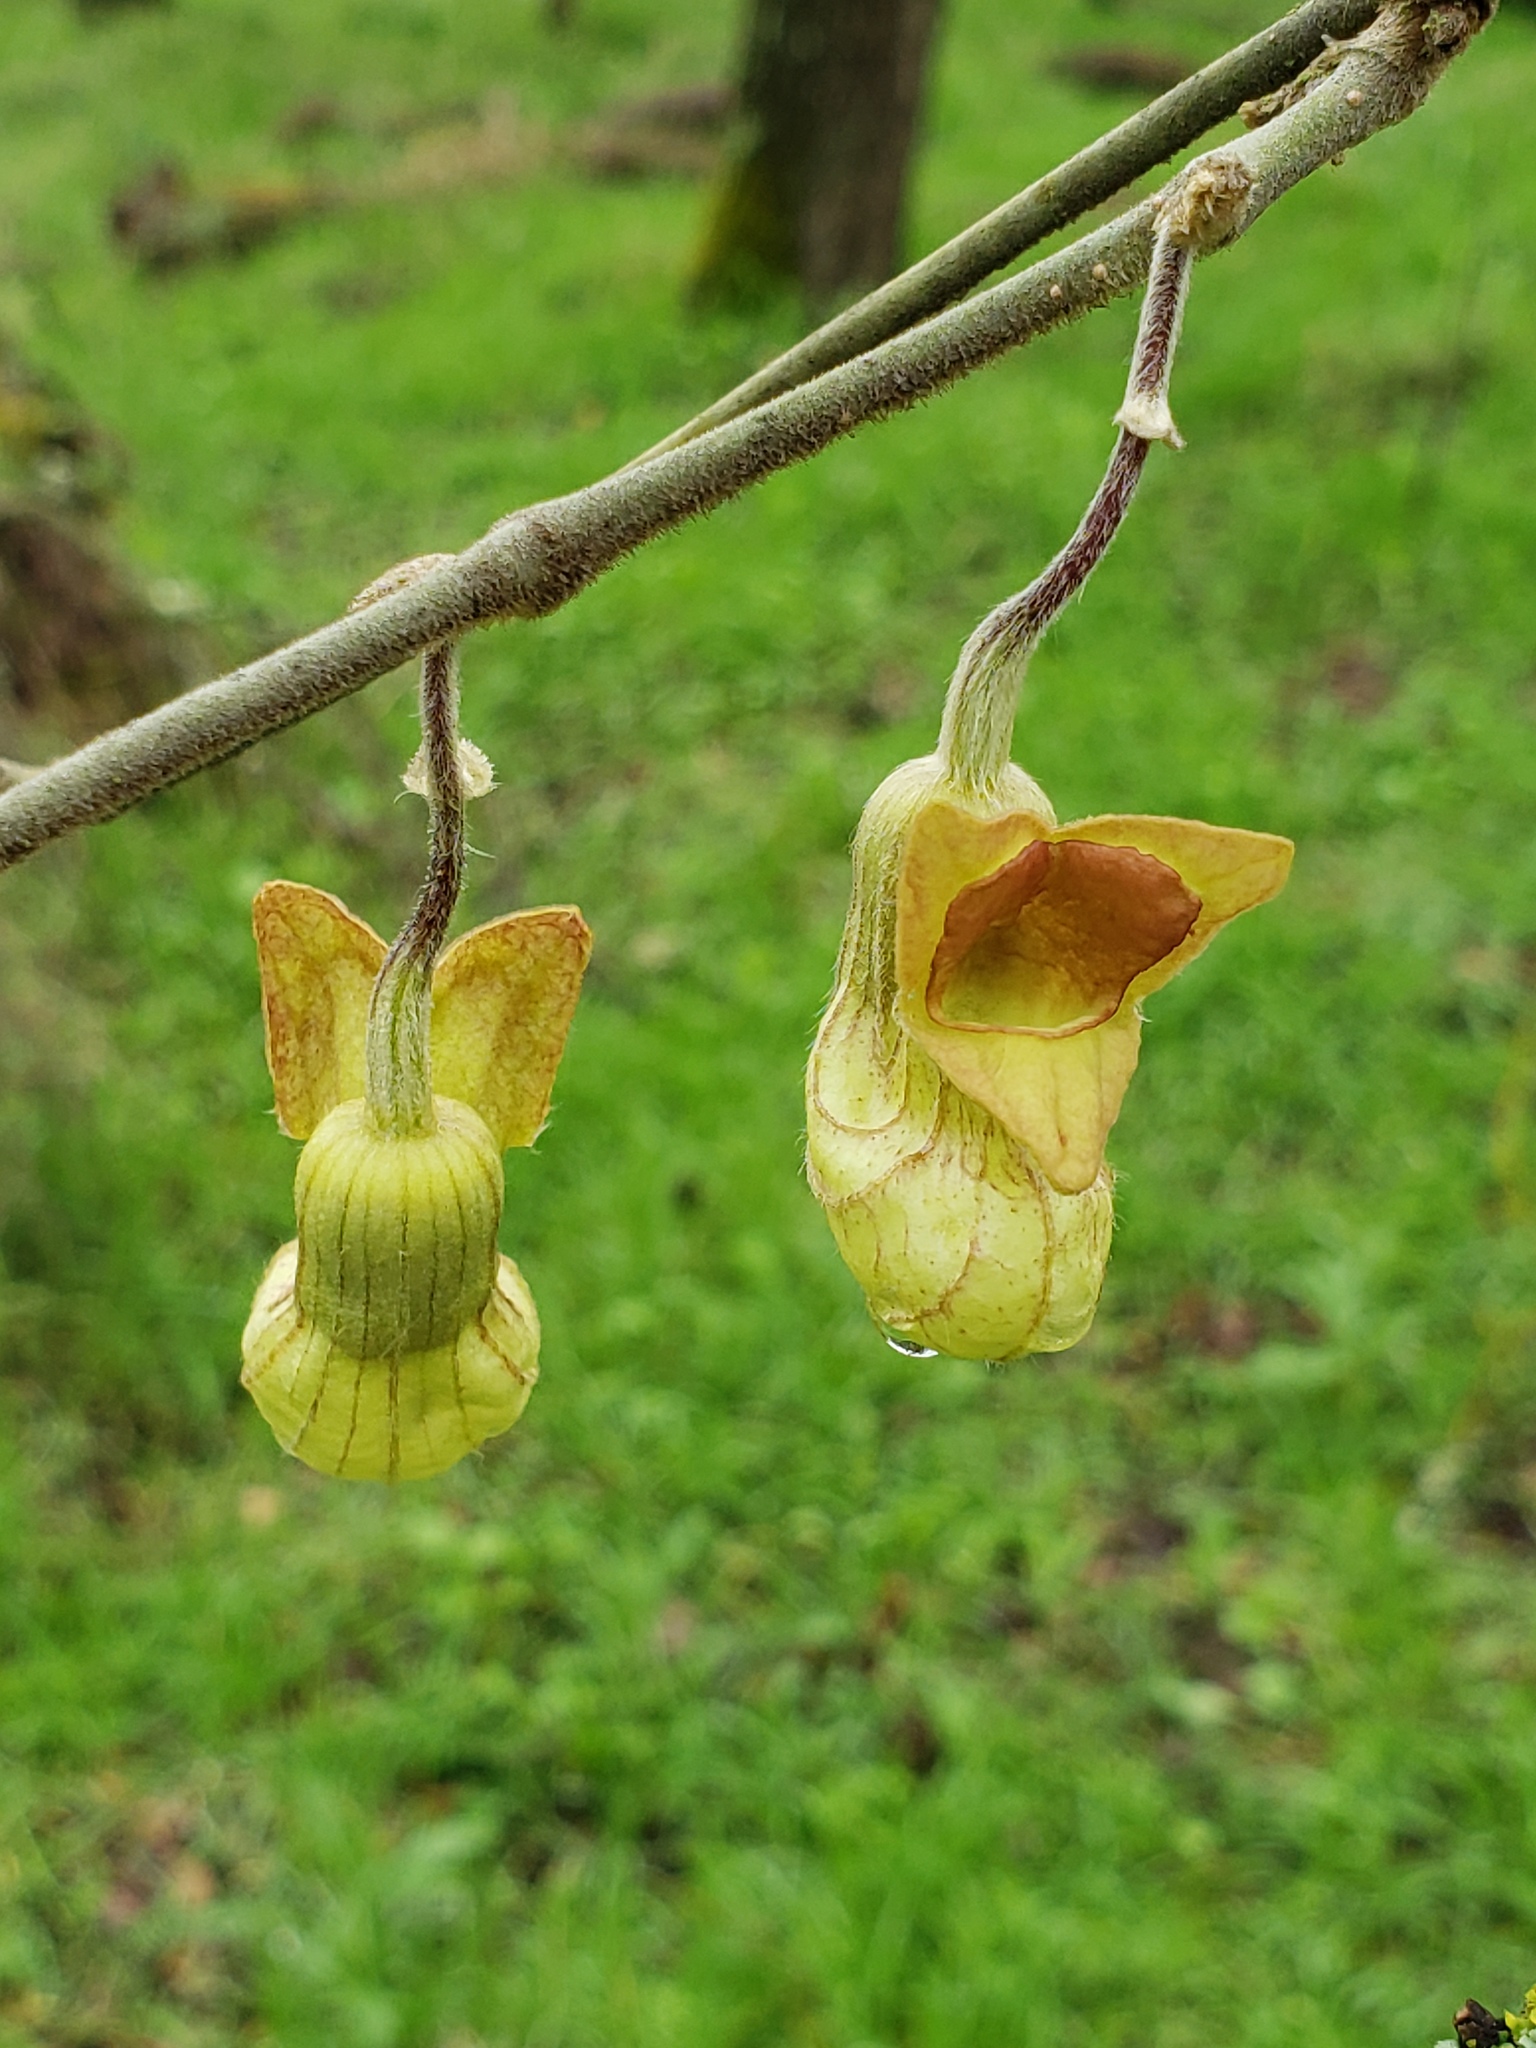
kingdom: Plantae
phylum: Tracheophyta
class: Magnoliopsida
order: Piperales
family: Aristolochiaceae
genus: Isotrema
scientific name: Isotrema californicum
